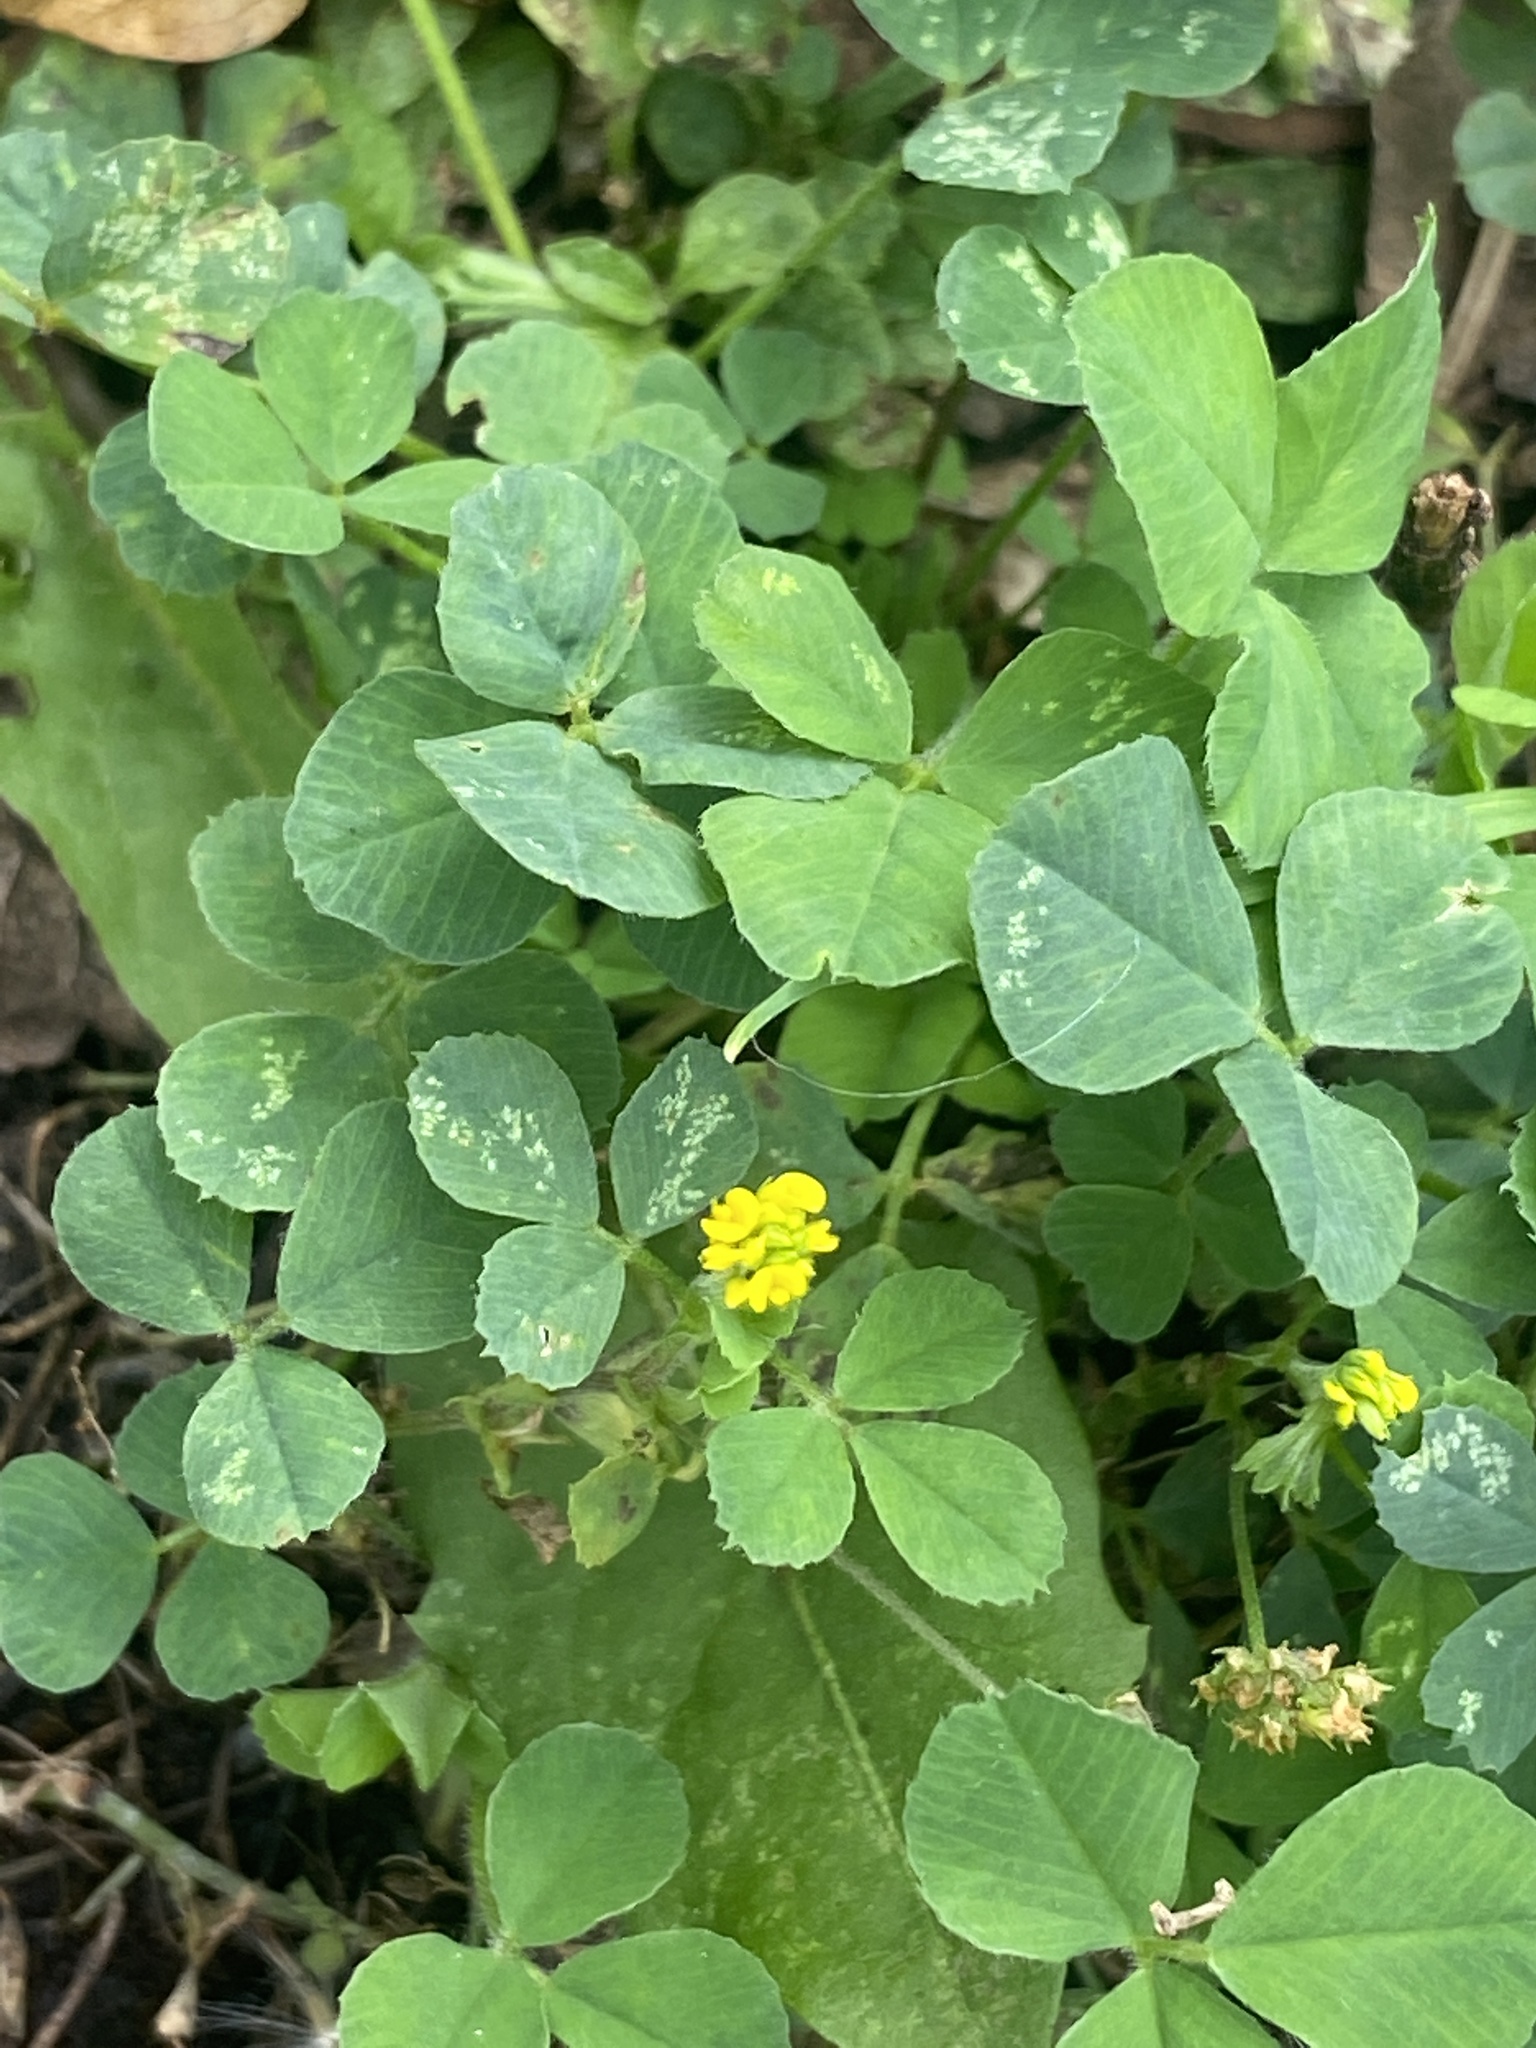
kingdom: Plantae
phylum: Tracheophyta
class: Magnoliopsida
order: Fabales
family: Fabaceae
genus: Medicago
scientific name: Medicago lupulina
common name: Black medick
